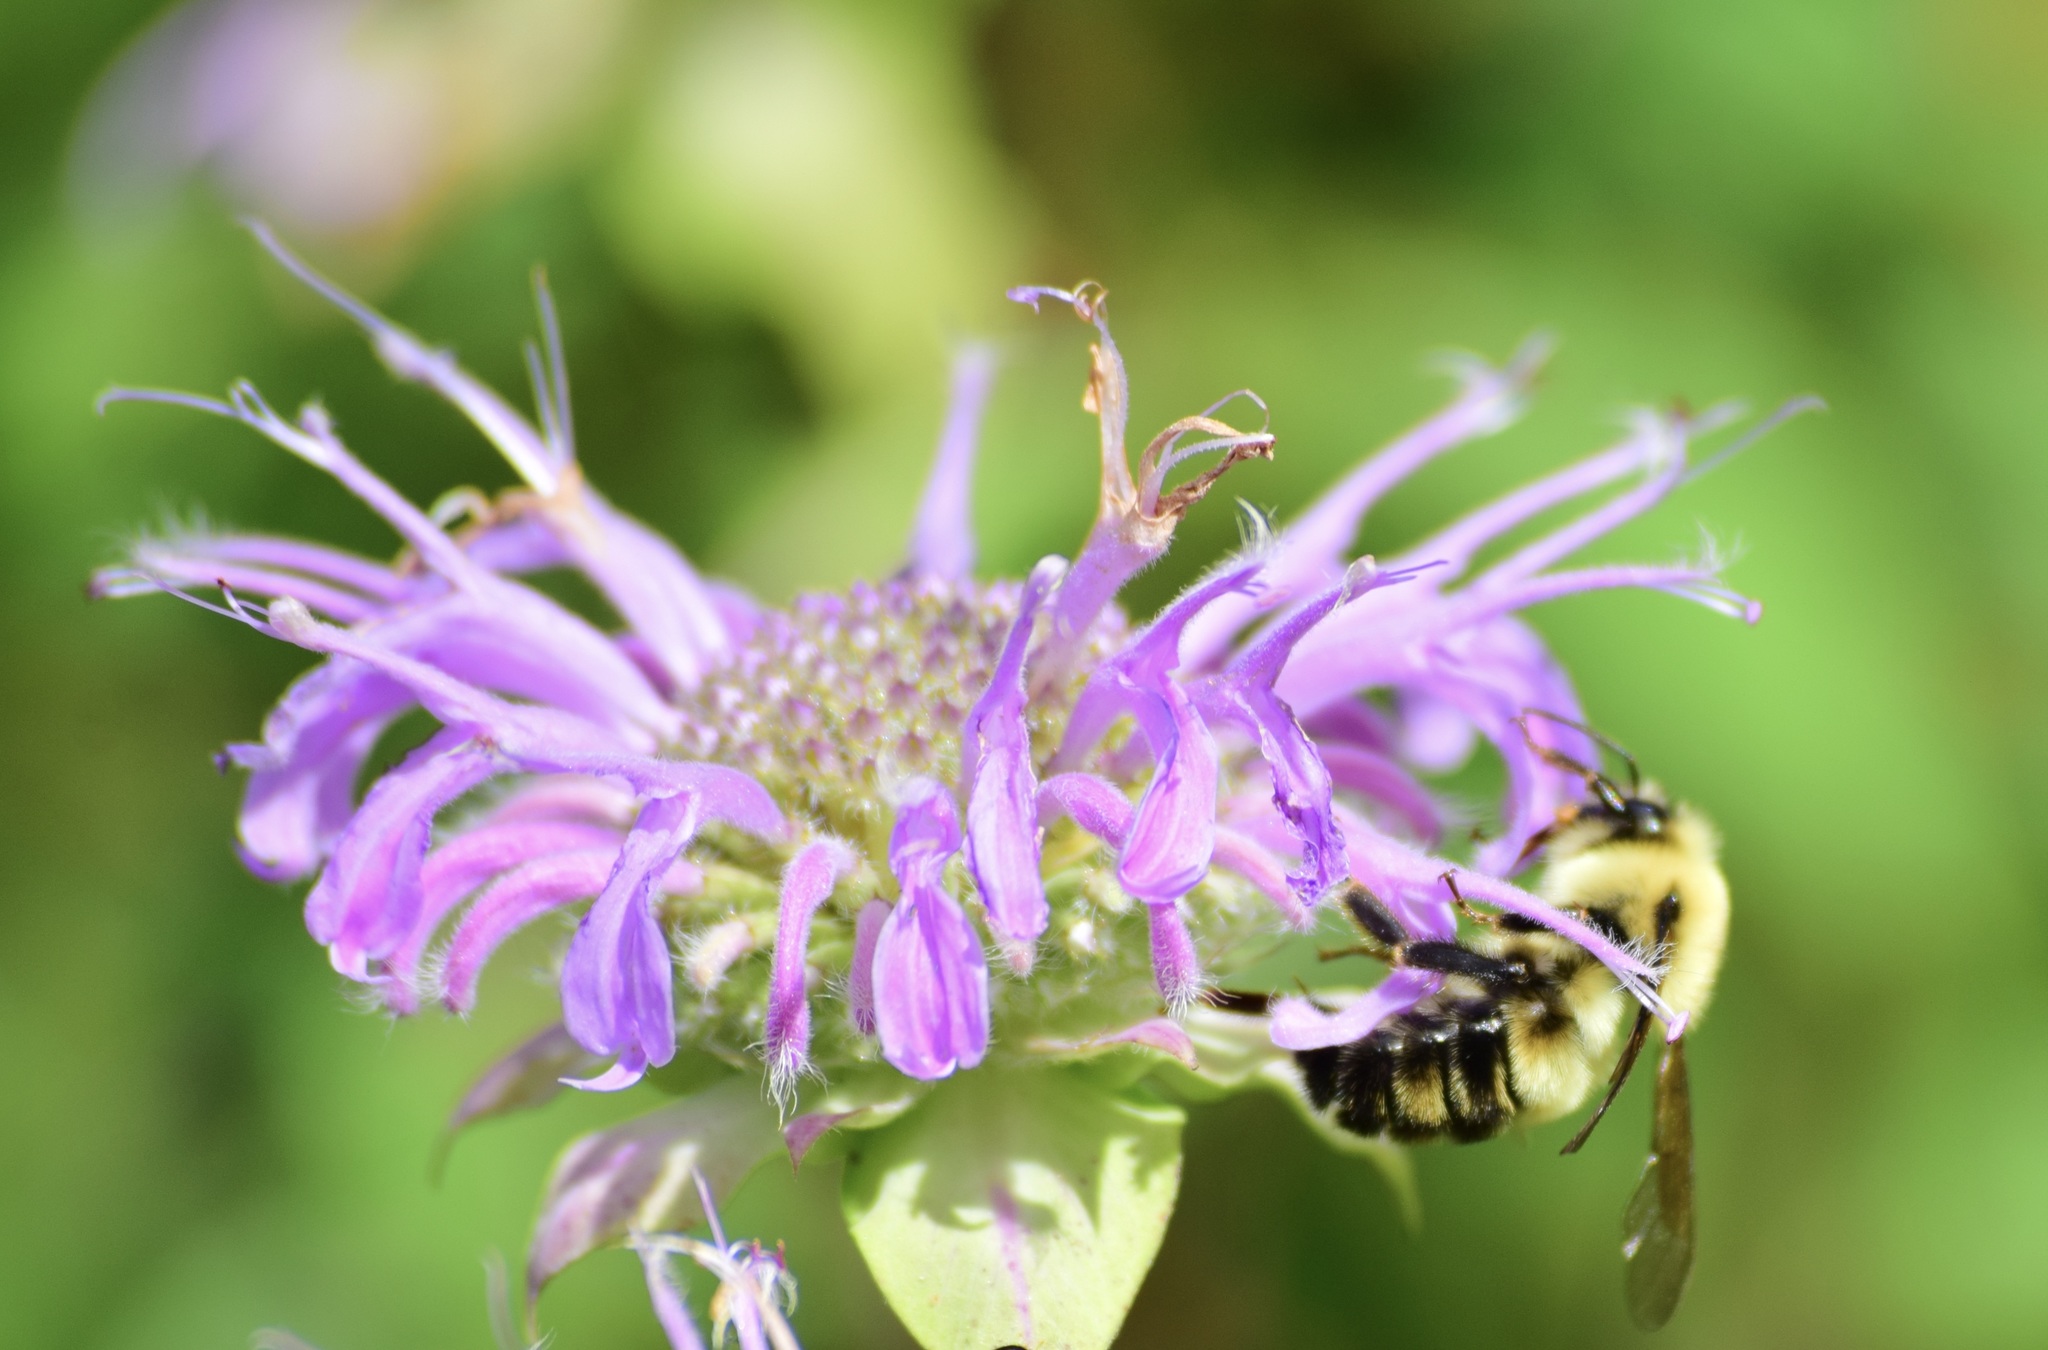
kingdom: Animalia
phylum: Arthropoda
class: Insecta
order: Hymenoptera
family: Apidae
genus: Bombus
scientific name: Bombus bimaculatus
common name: Two-spotted bumble bee
